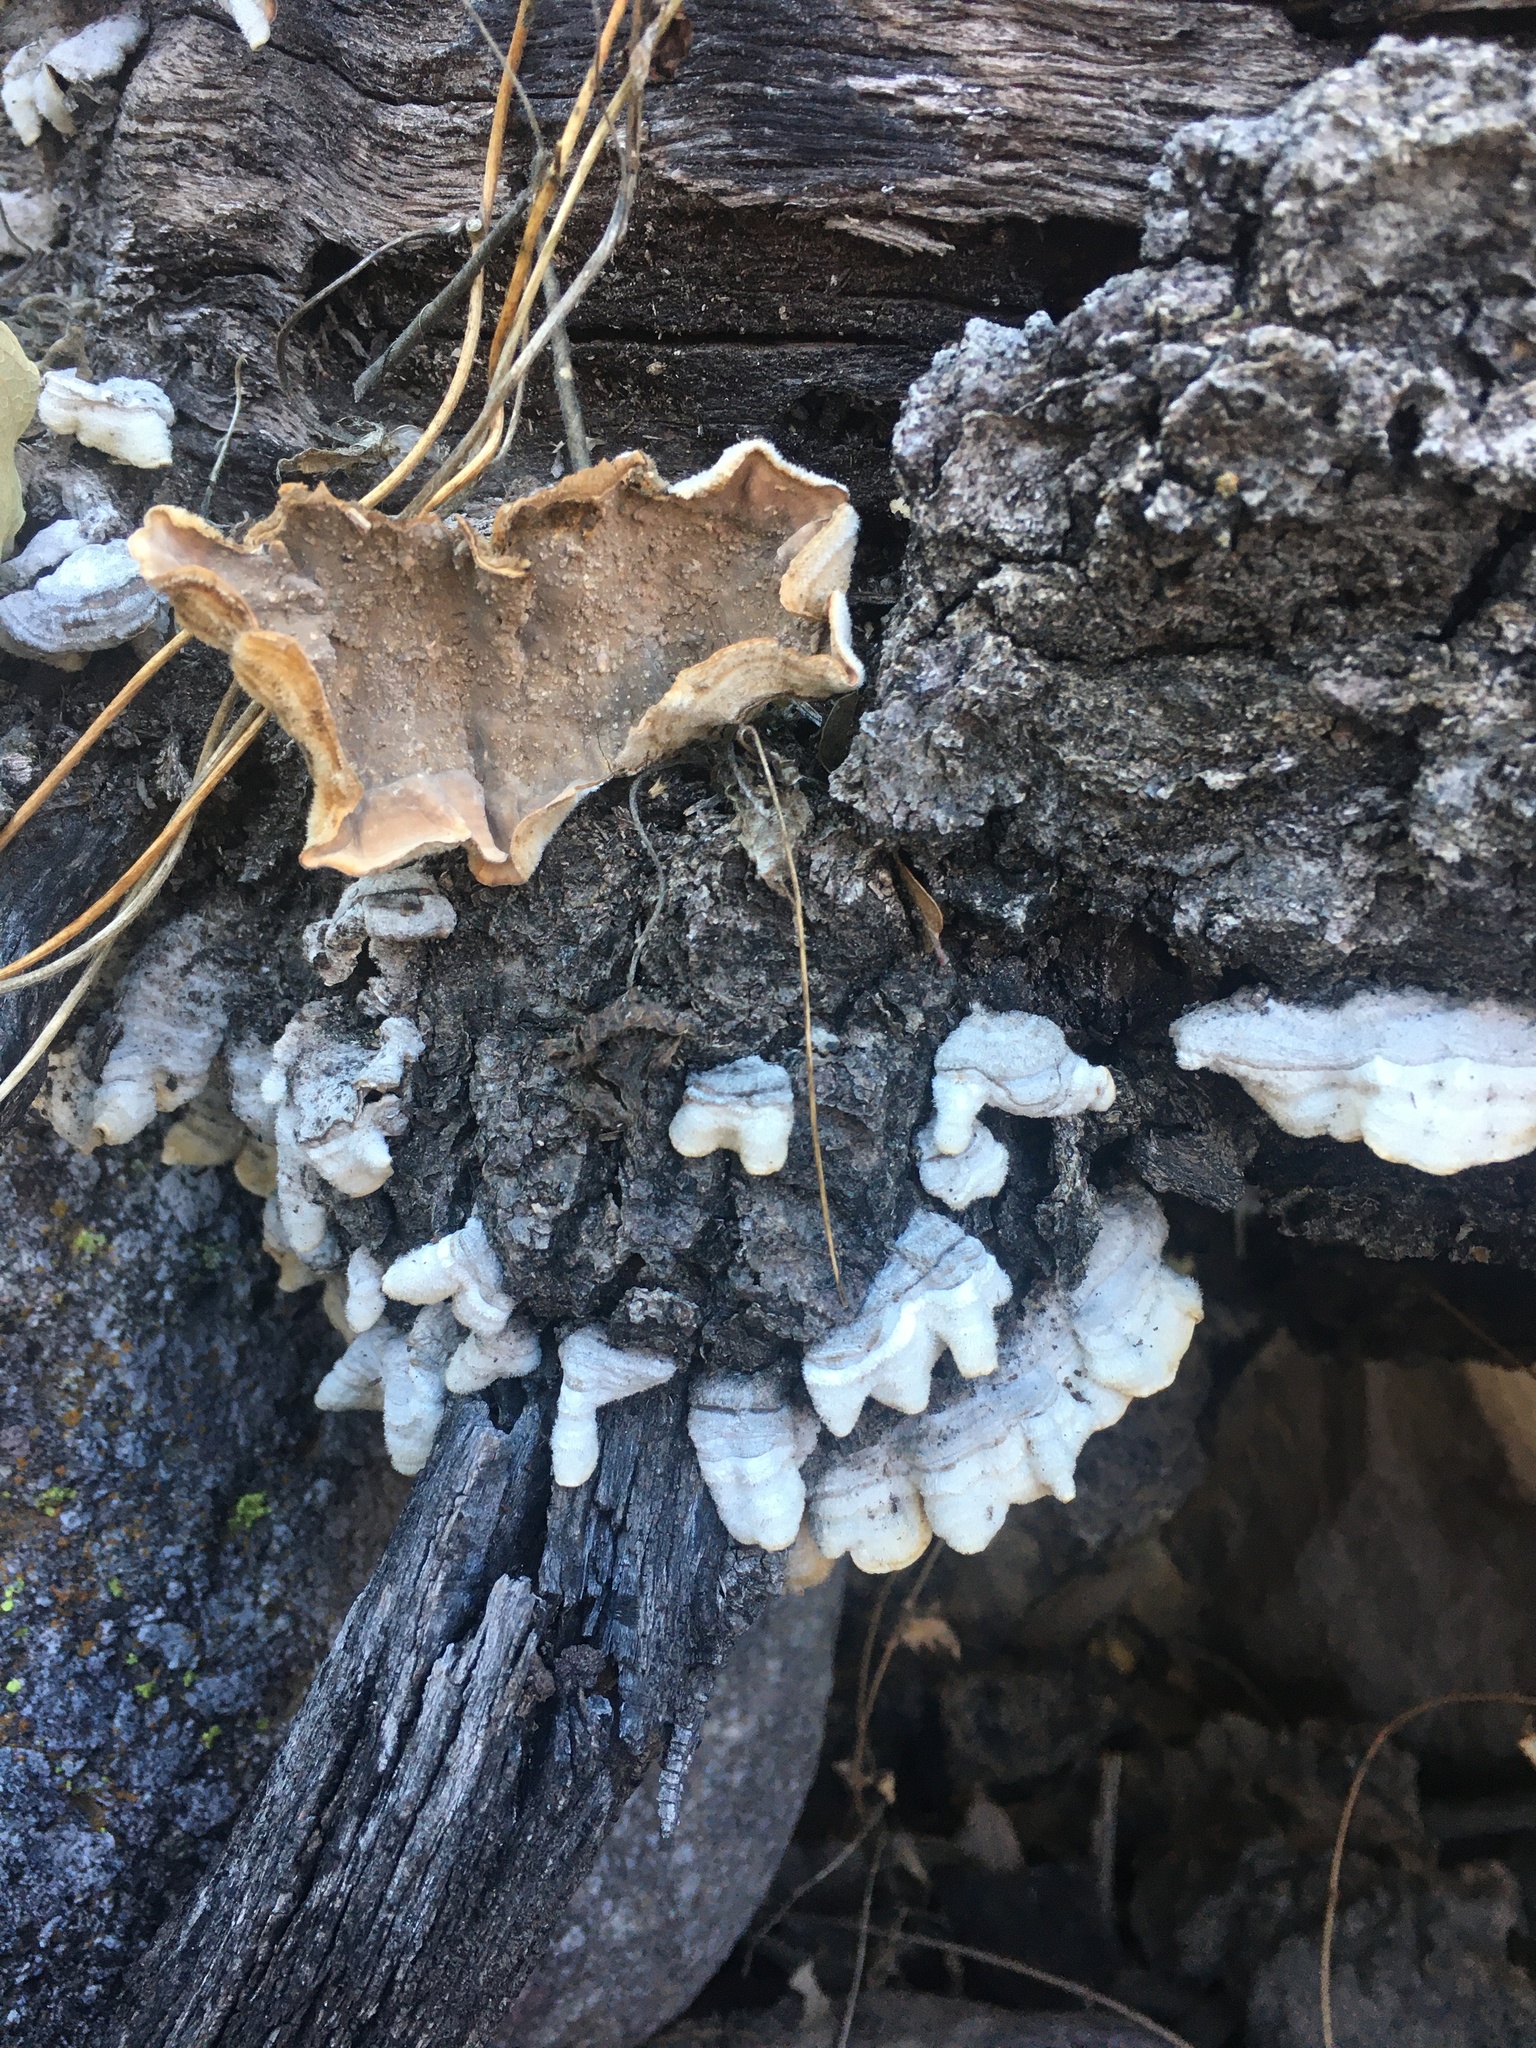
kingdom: Fungi
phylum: Basidiomycota
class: Agaricomycetes
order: Russulales
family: Stereaceae
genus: Stereum
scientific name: Stereum hirsutum
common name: Hairy curtain crust
